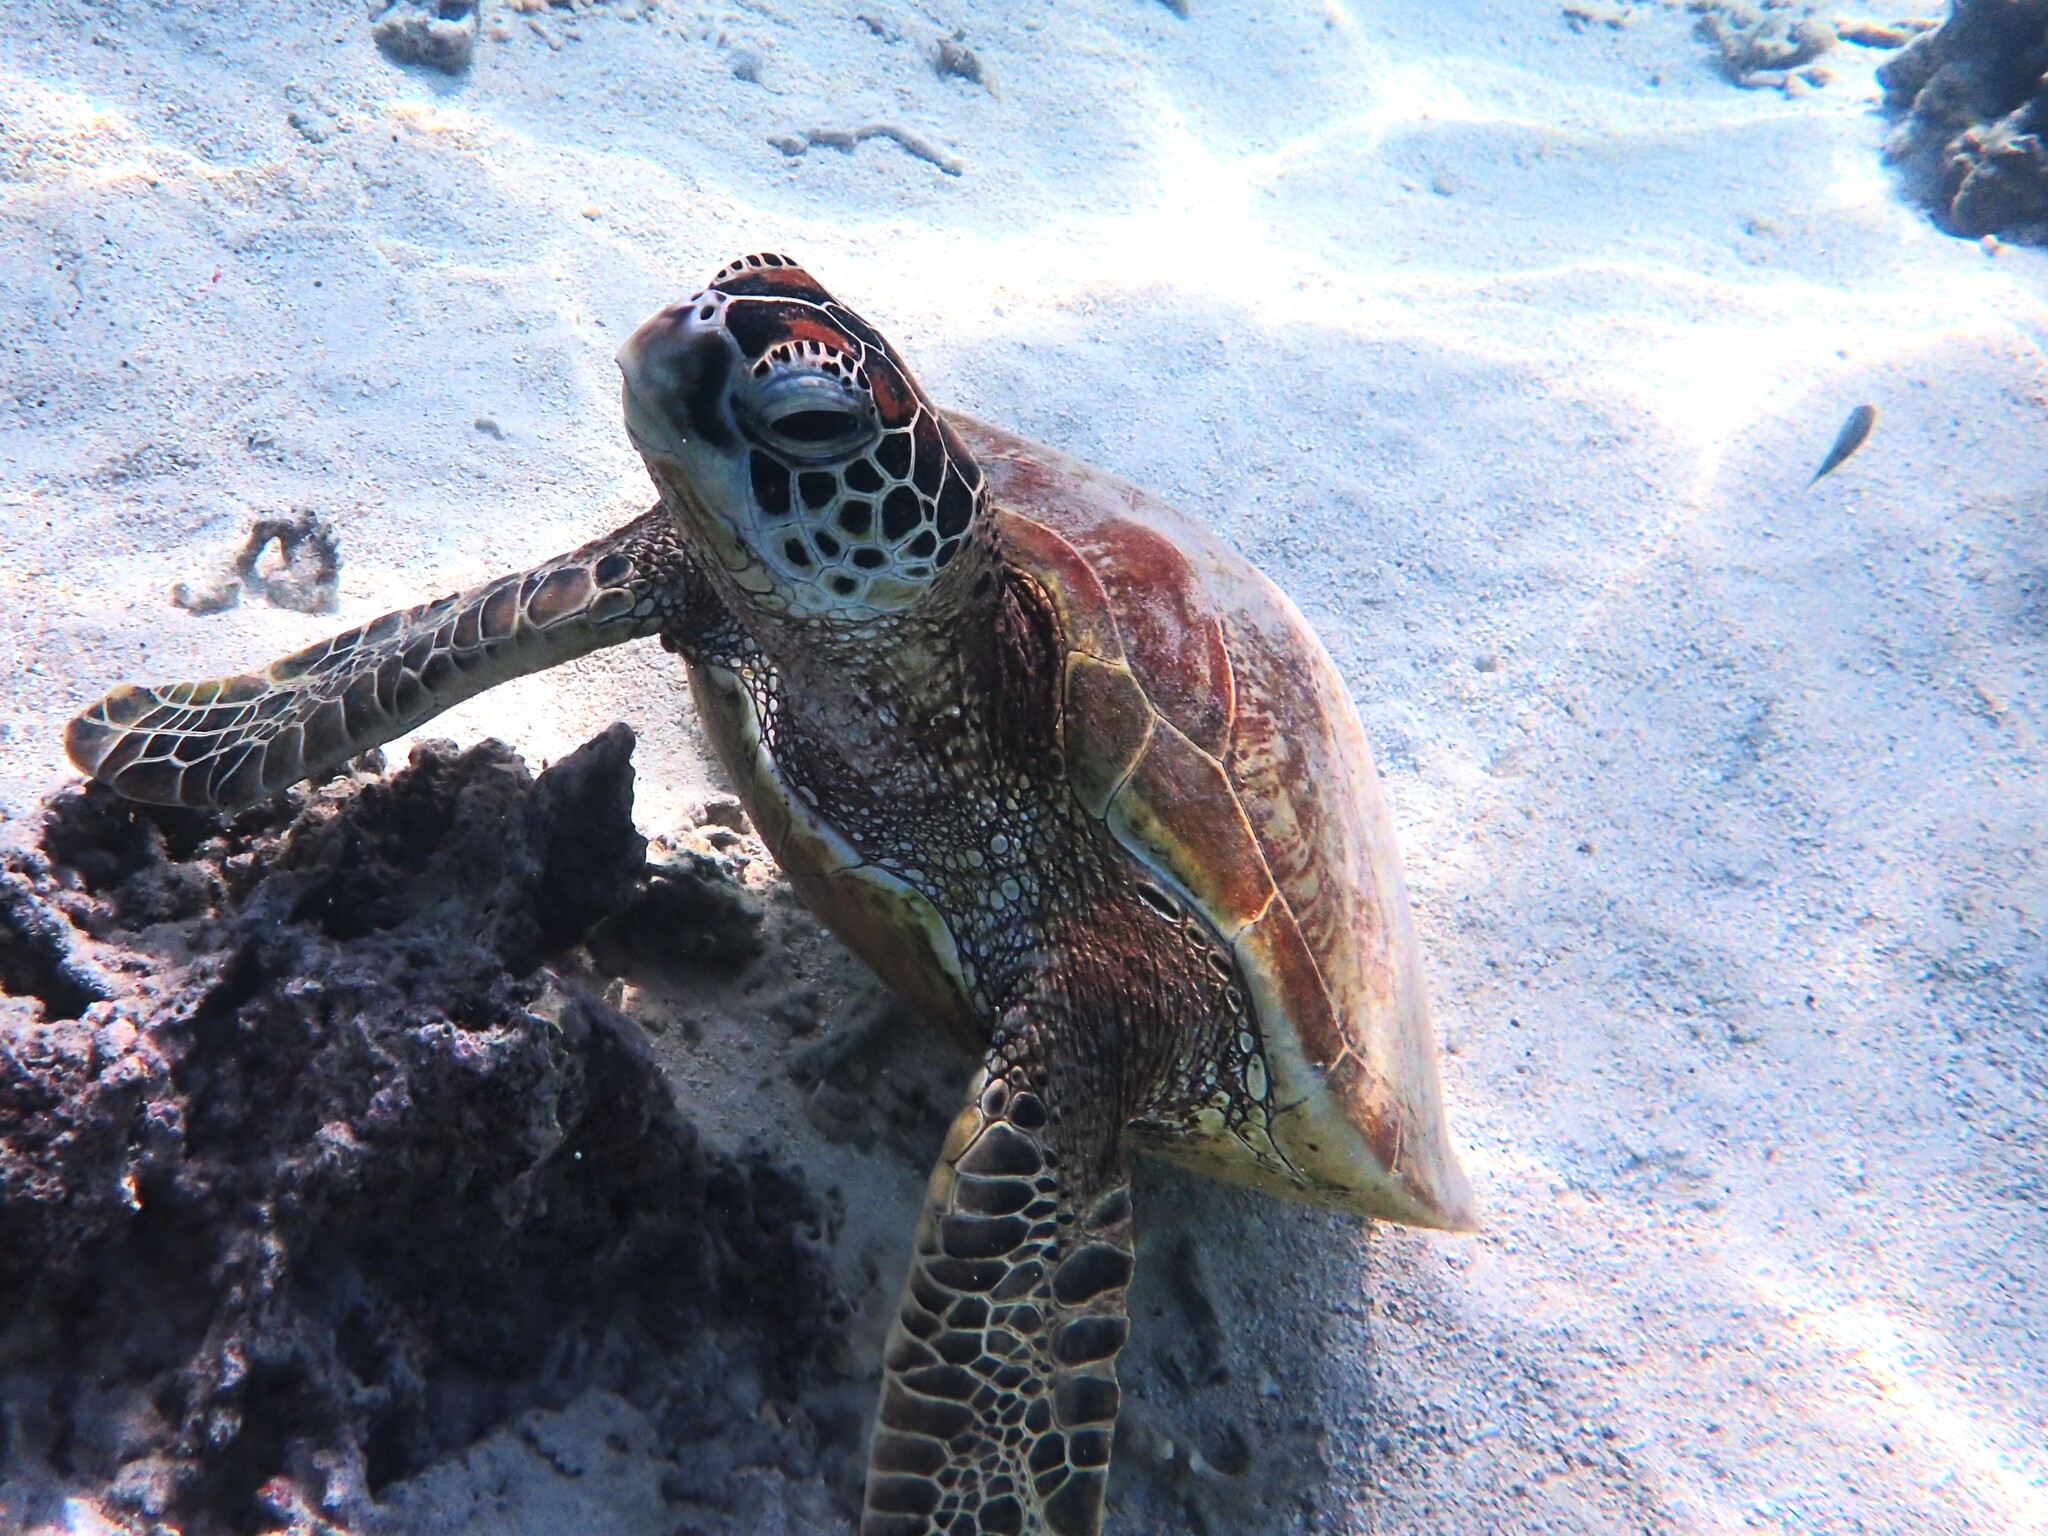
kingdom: Animalia
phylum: Chordata
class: Testudines
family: Cheloniidae
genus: Chelonia
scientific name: Chelonia mydas
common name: Green turtle
